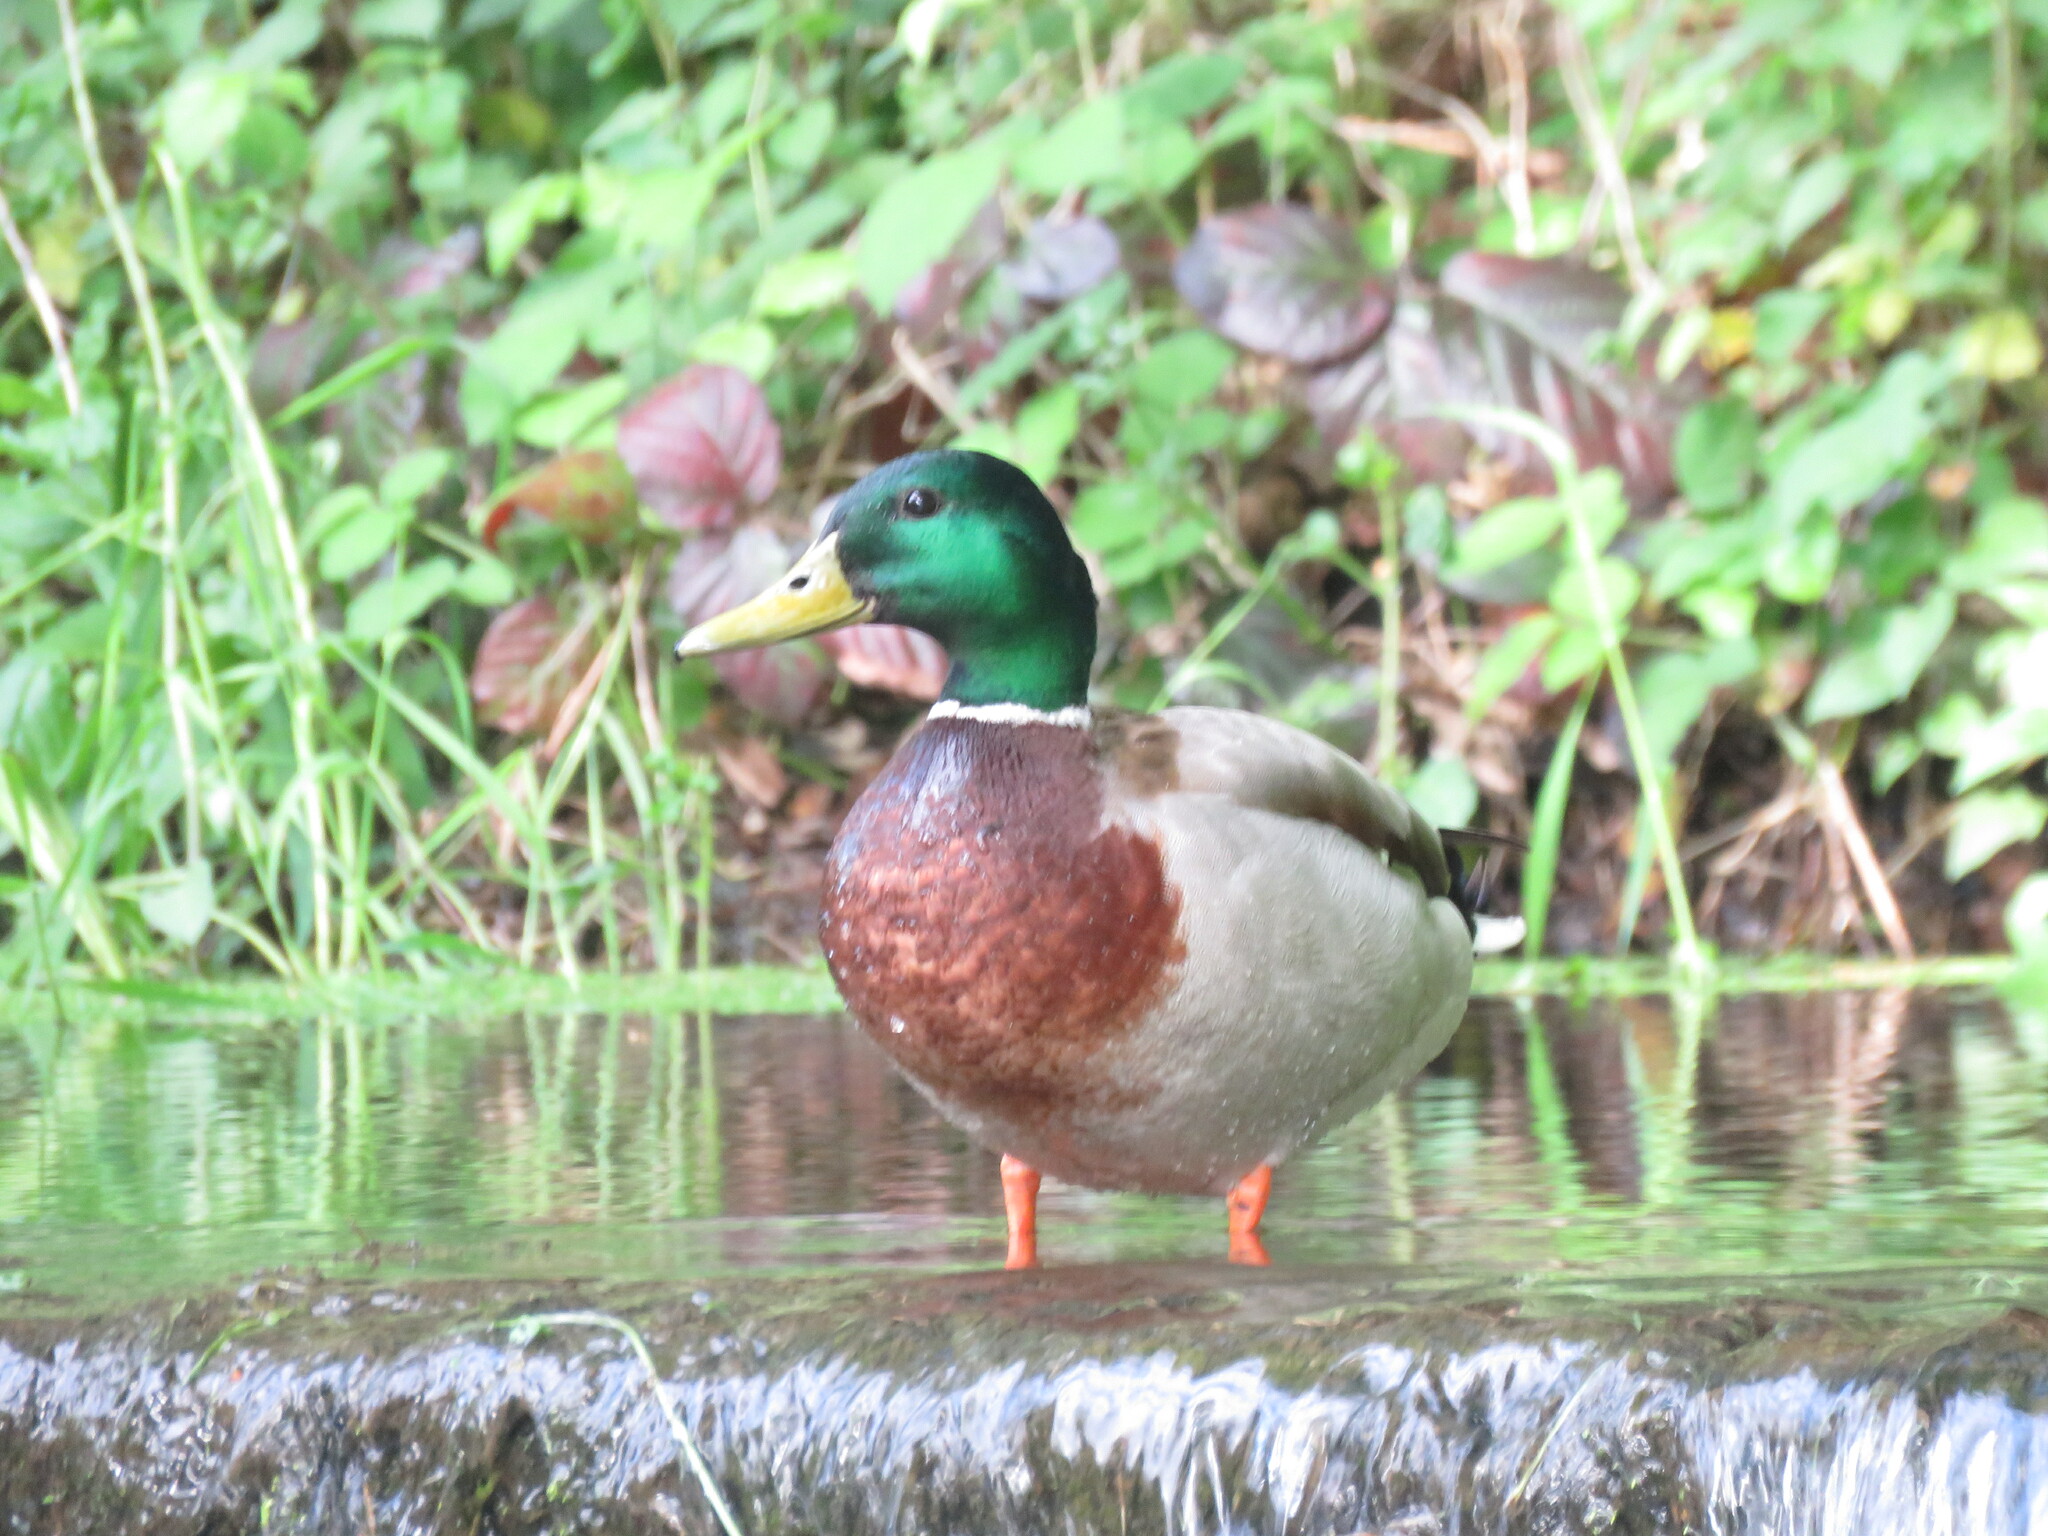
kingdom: Animalia
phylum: Chordata
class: Aves
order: Anseriformes
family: Anatidae
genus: Anas
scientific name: Anas platyrhynchos
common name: Mallard
